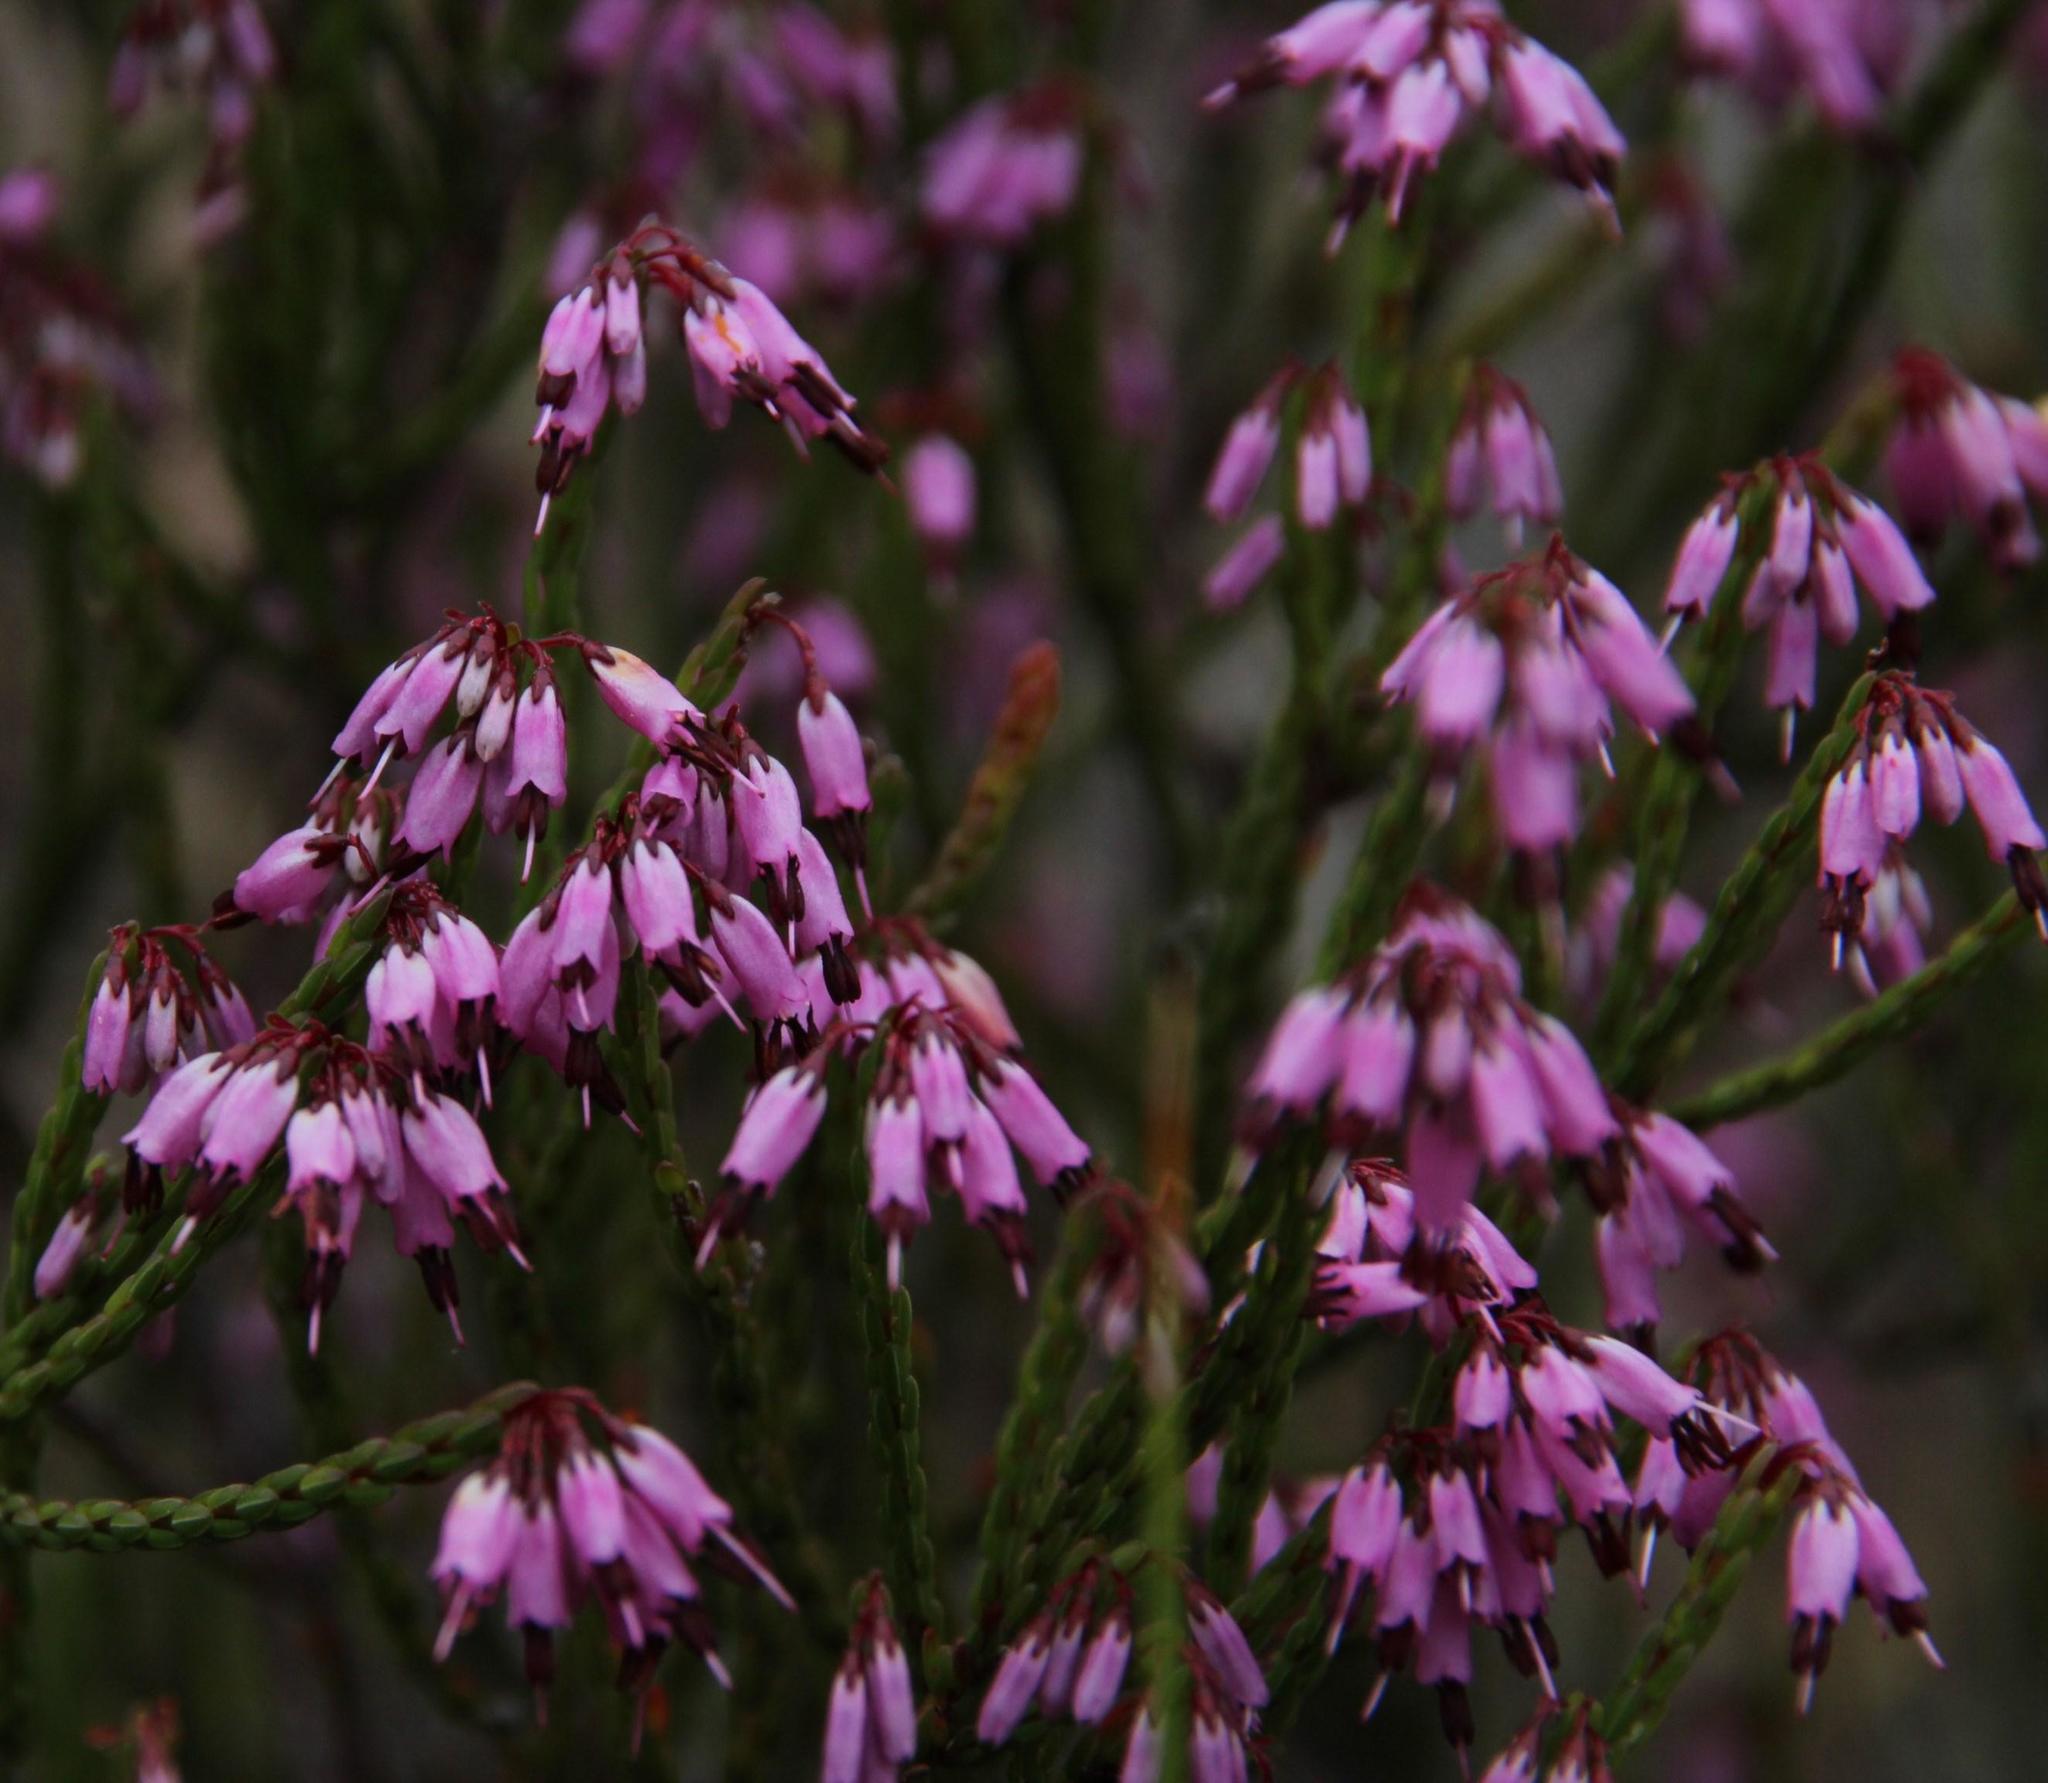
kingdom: Plantae
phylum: Tracheophyta
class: Magnoliopsida
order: Ericales
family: Ericaceae
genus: Erica
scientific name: Erica equisetifolia
